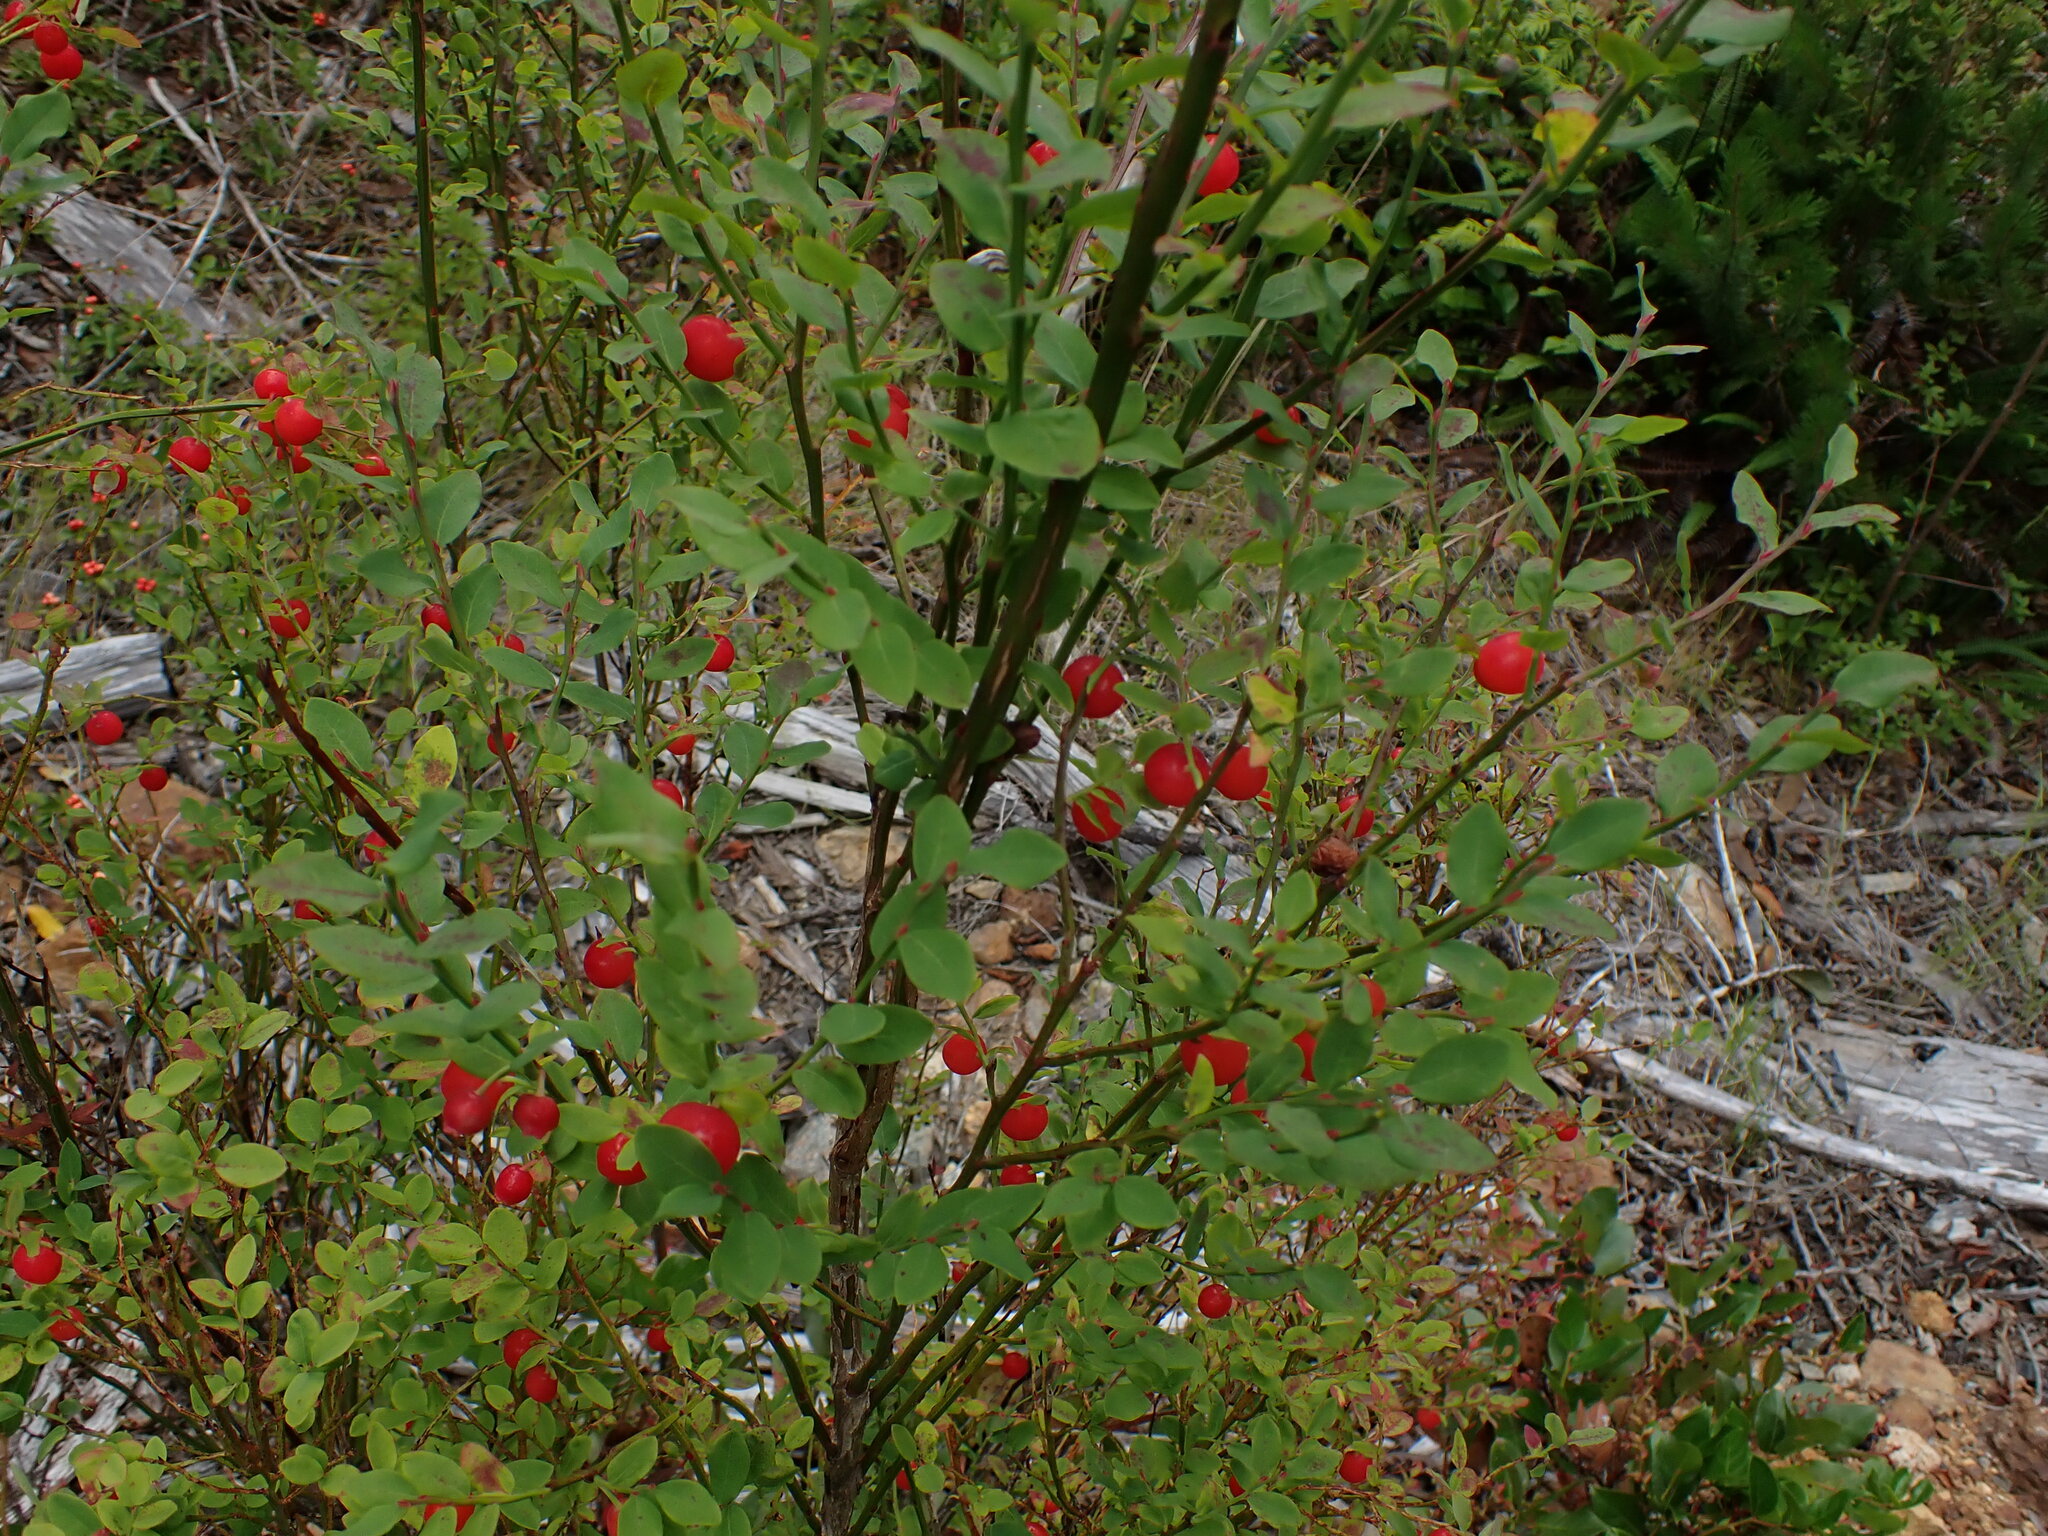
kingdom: Plantae
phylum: Tracheophyta
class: Magnoliopsida
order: Ericales
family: Ericaceae
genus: Vaccinium
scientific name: Vaccinium parvifolium
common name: Red-huckleberry
